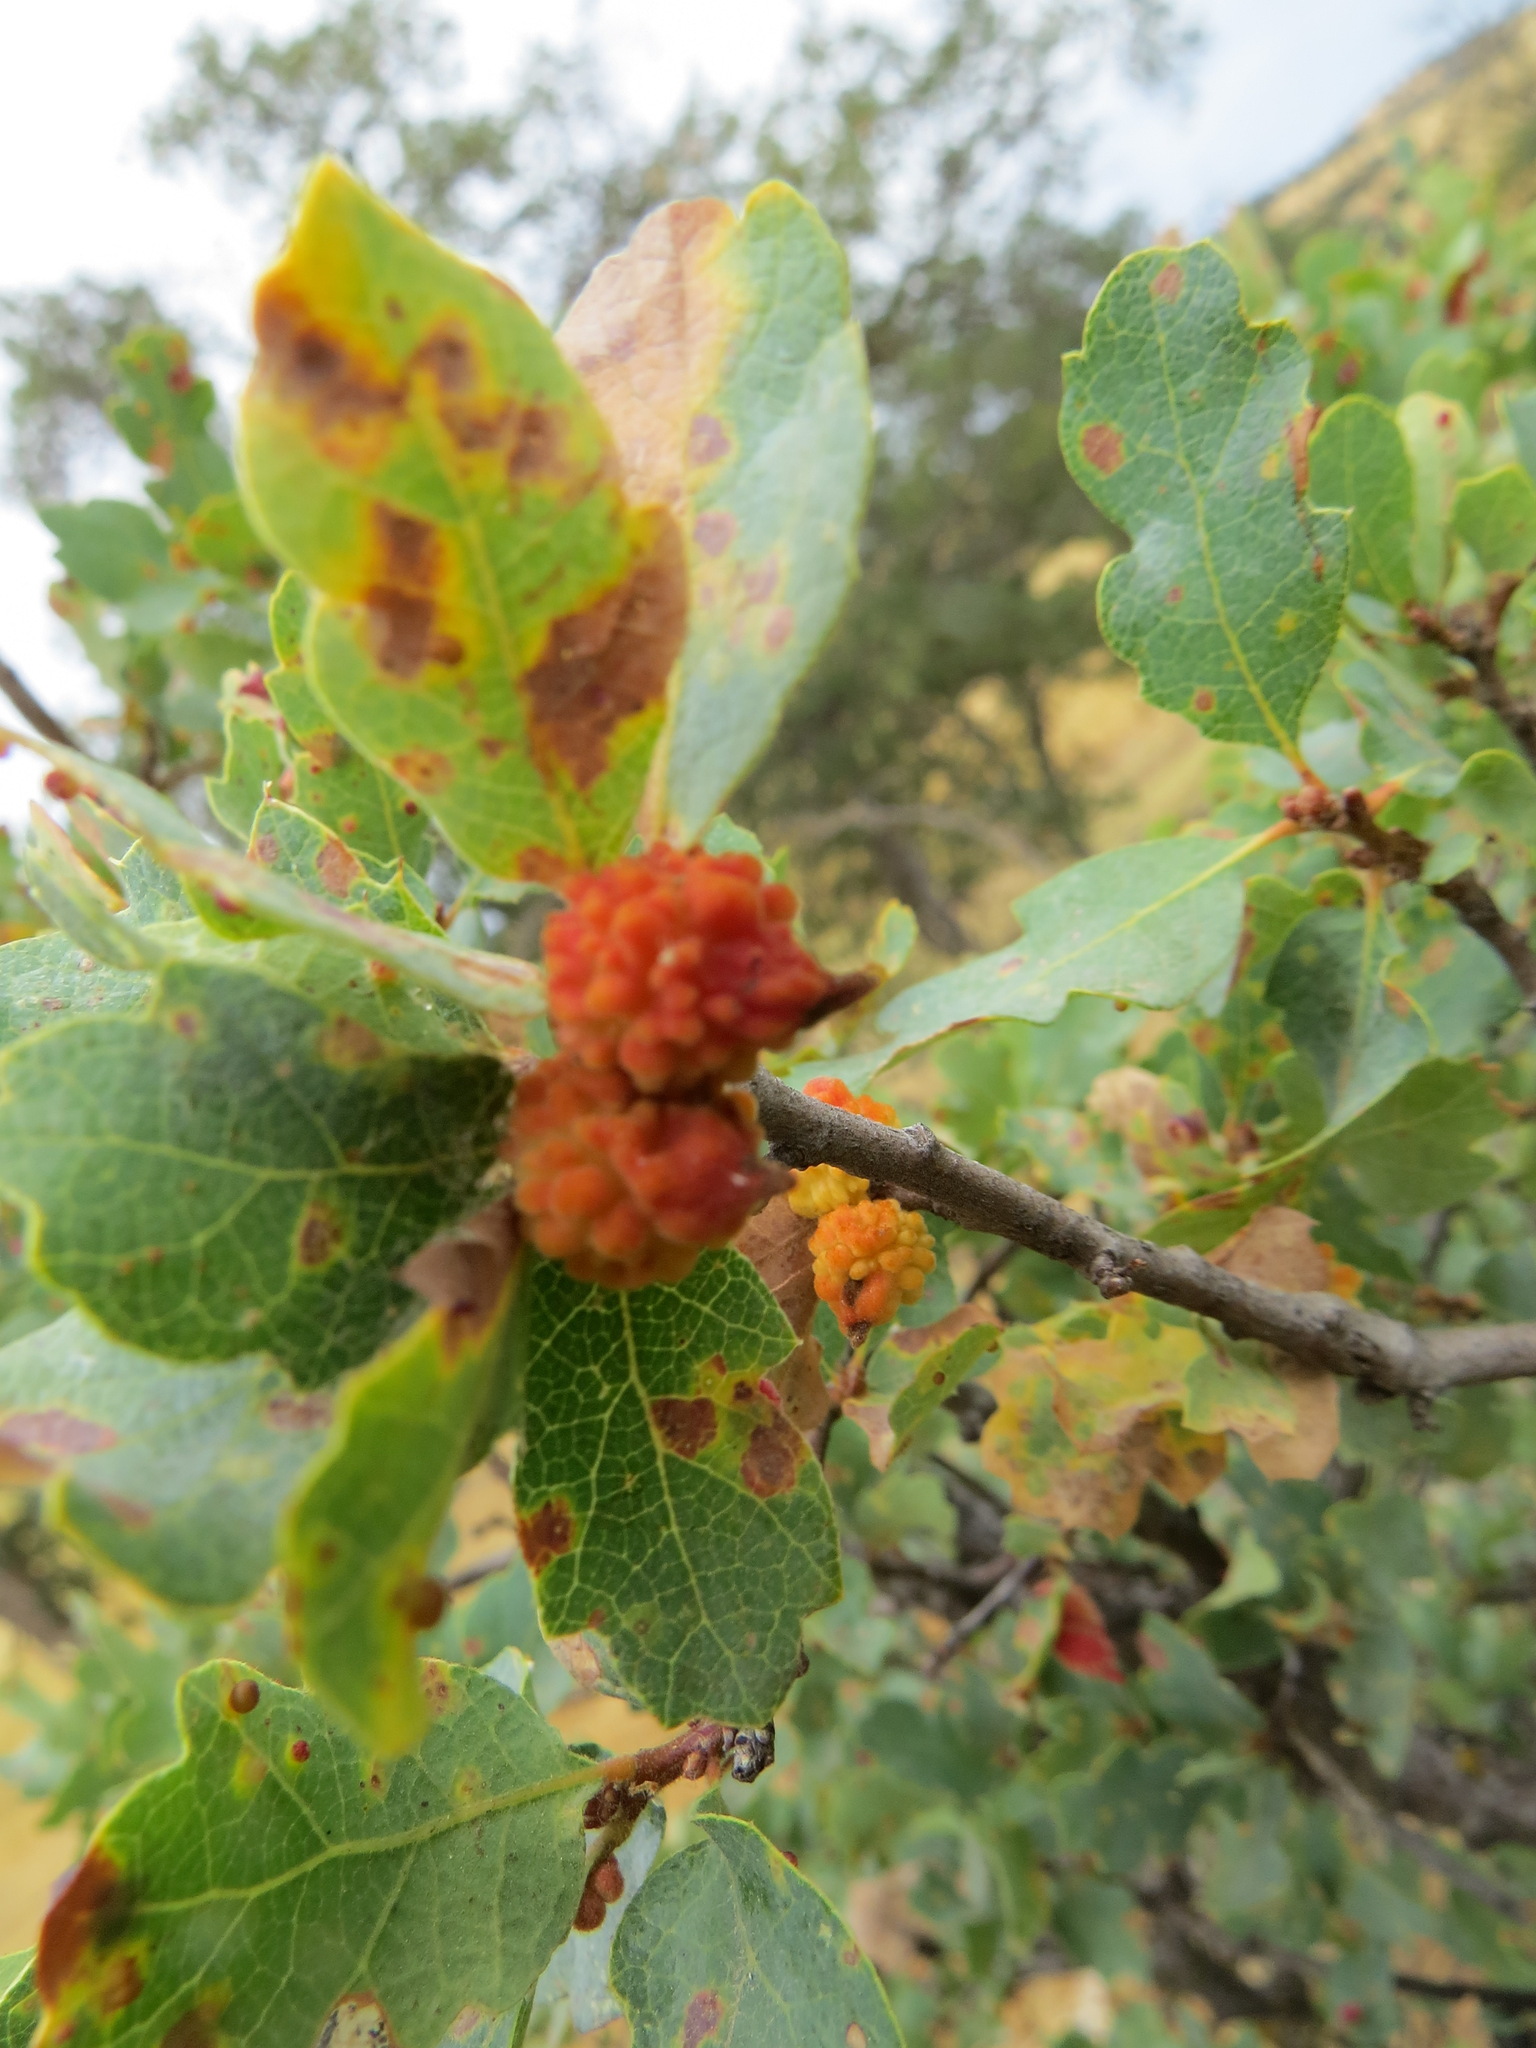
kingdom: Animalia
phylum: Arthropoda
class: Insecta
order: Hymenoptera
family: Cynipidae
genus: Burnettweldia
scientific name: Burnettweldia
